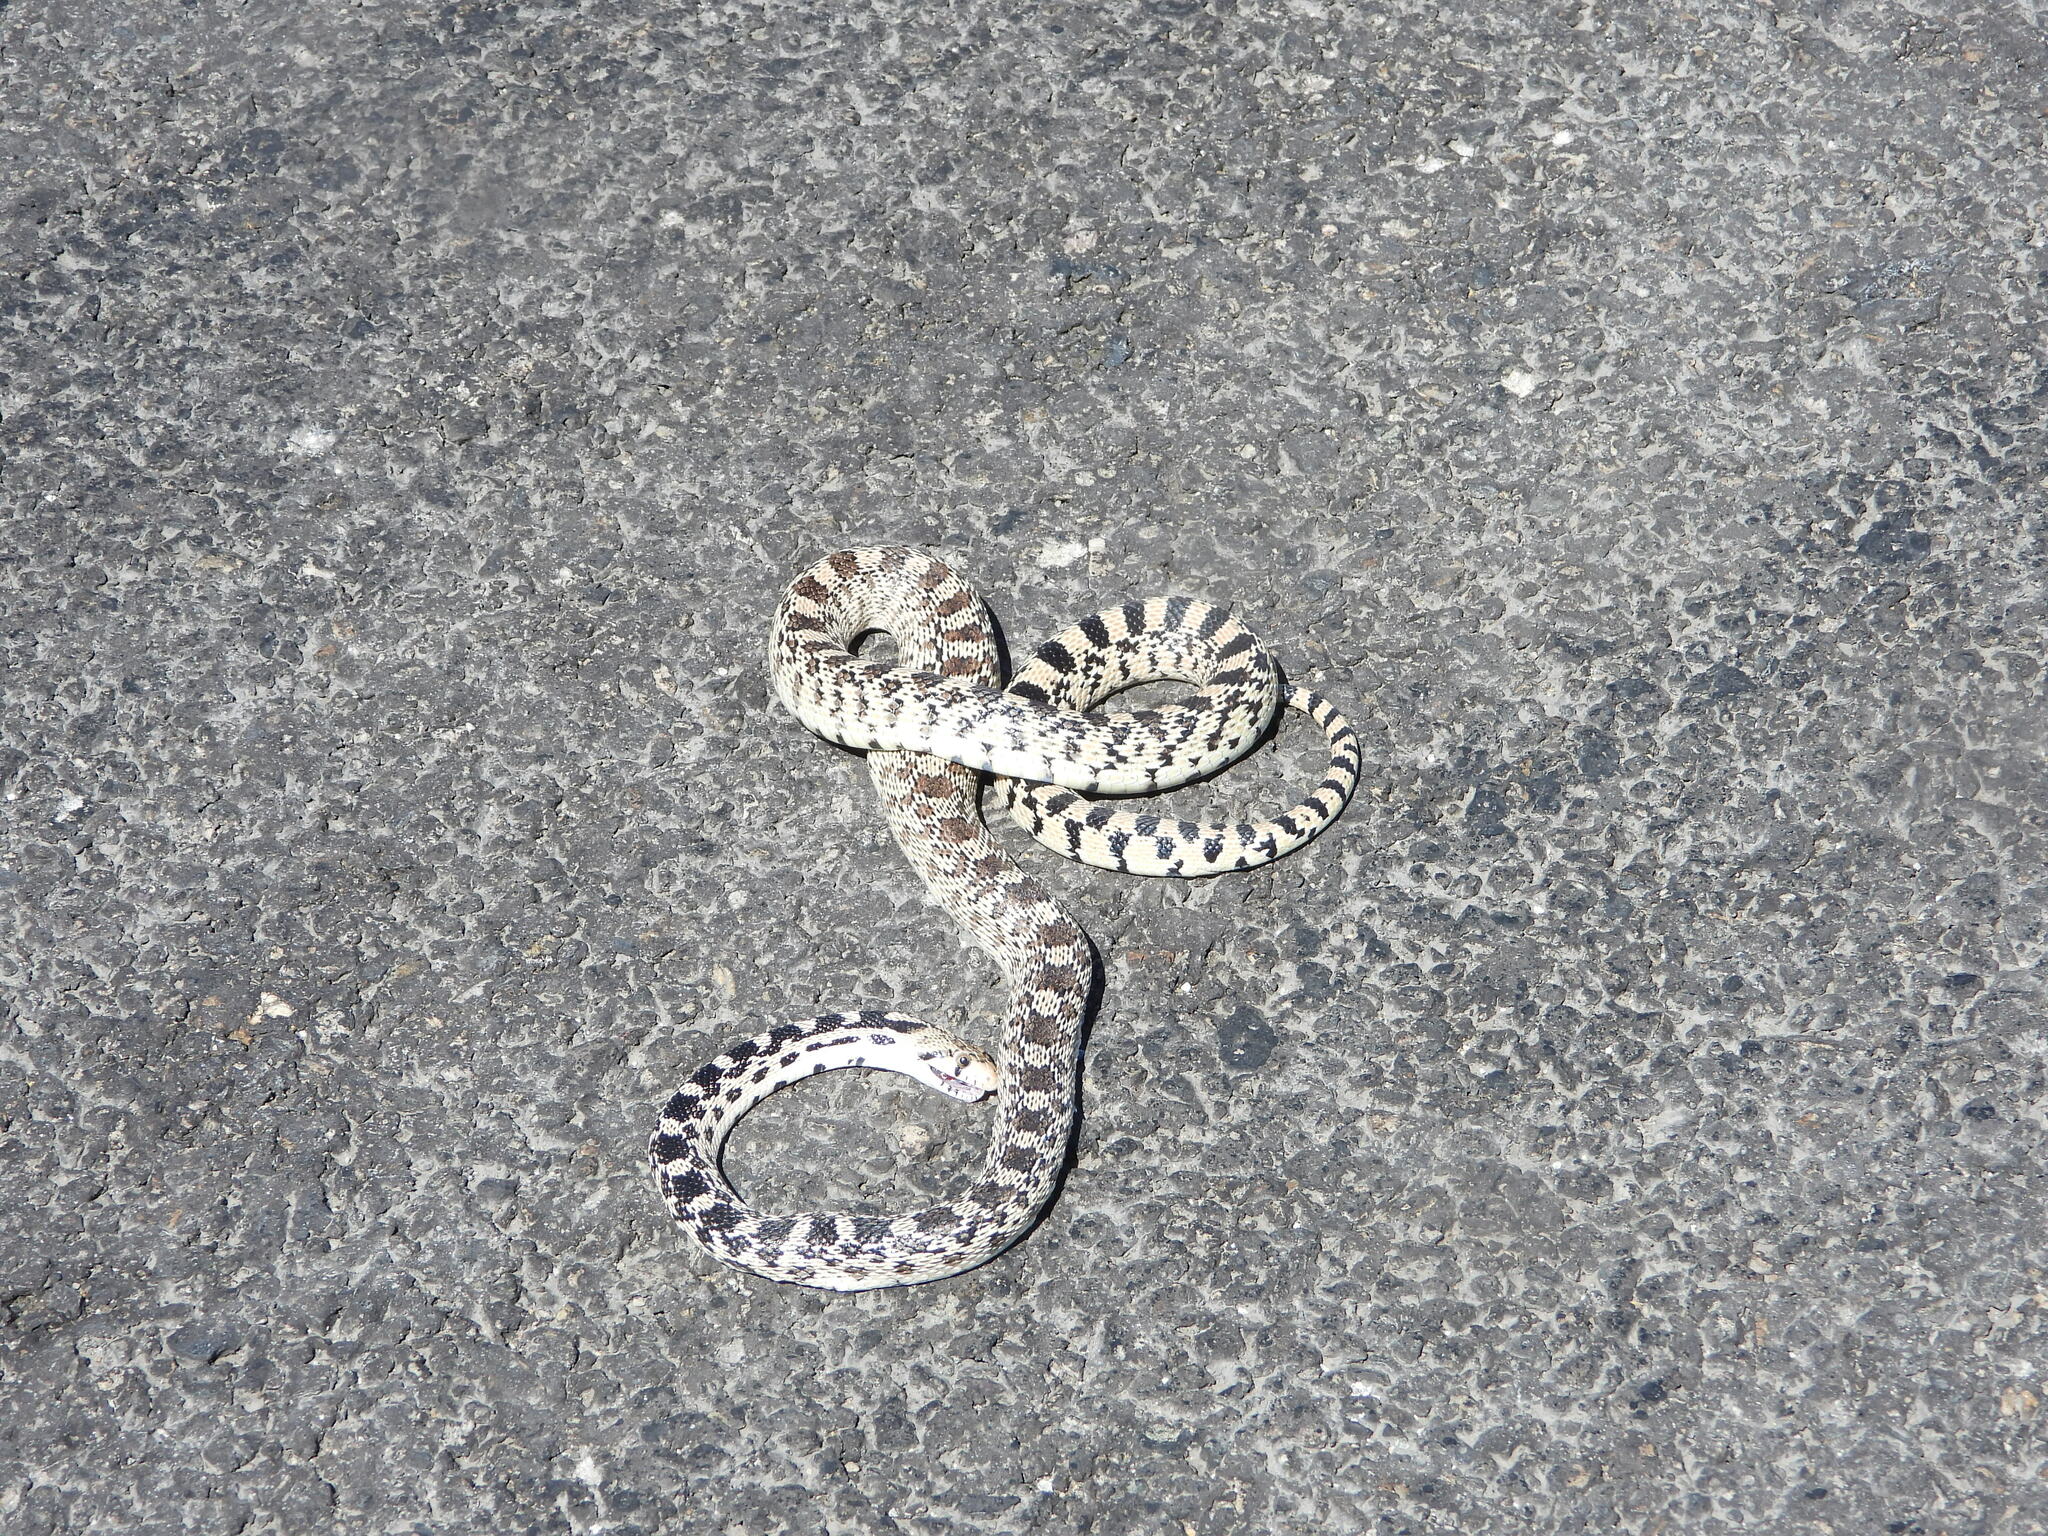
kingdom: Animalia
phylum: Chordata
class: Squamata
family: Colubridae
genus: Pituophis
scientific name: Pituophis catenifer
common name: Gopher snake
